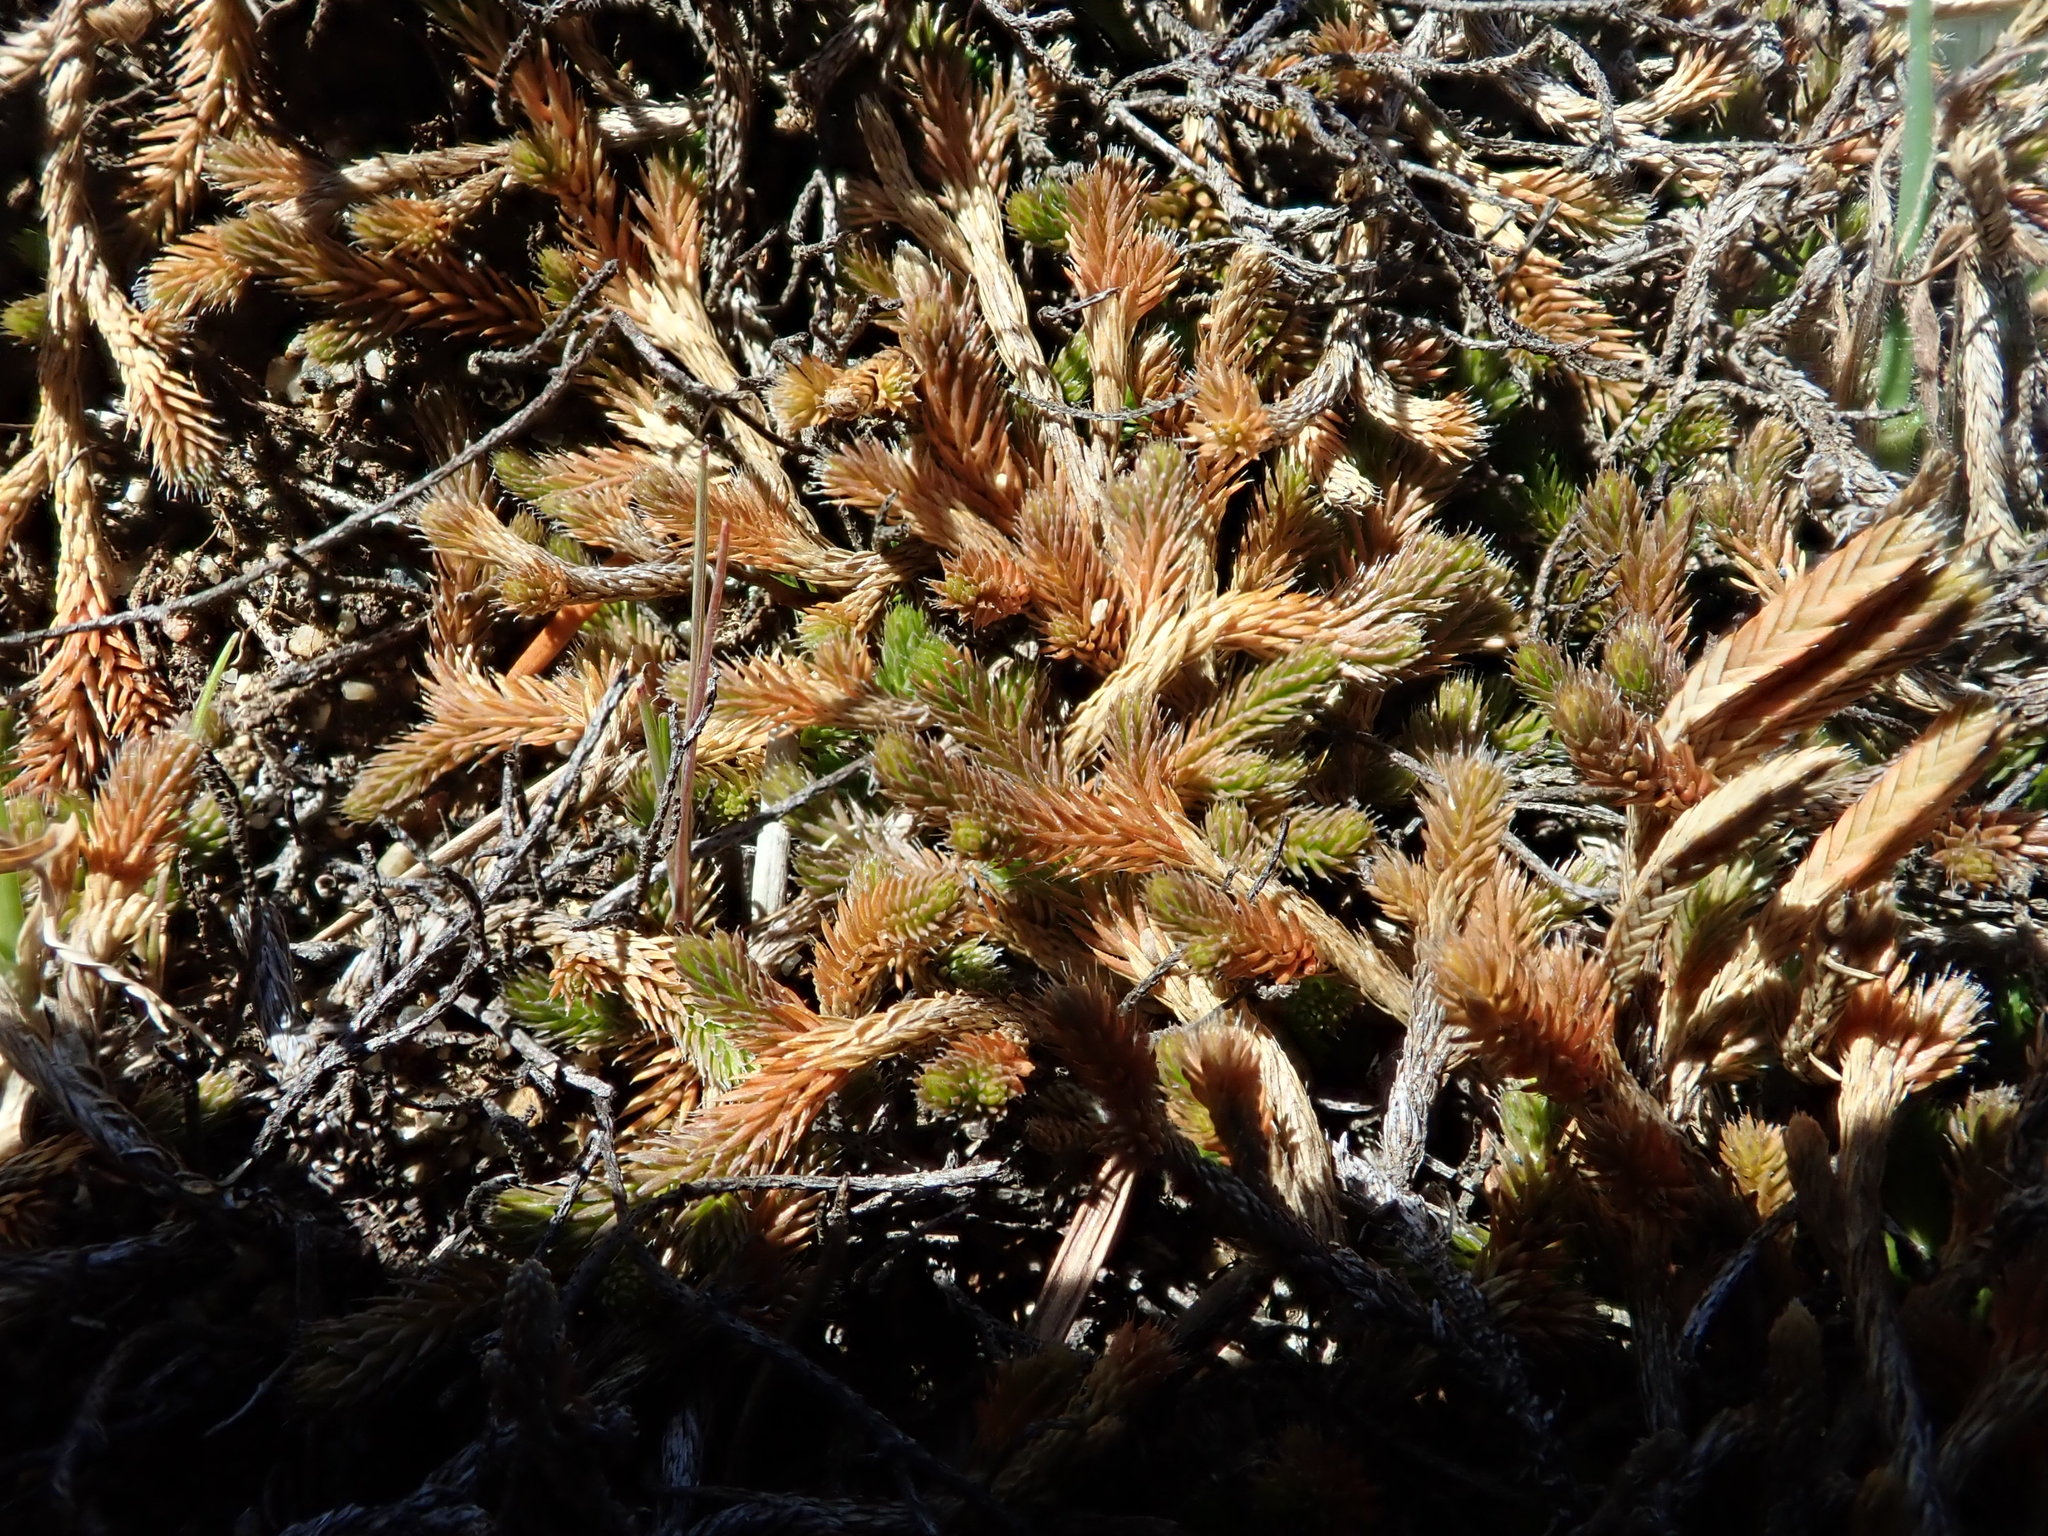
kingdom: Plantae
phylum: Tracheophyta
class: Lycopodiopsida
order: Selaginellales
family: Selaginellaceae
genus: Selaginella
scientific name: Selaginella wallacei
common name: Wallace's selaginella
